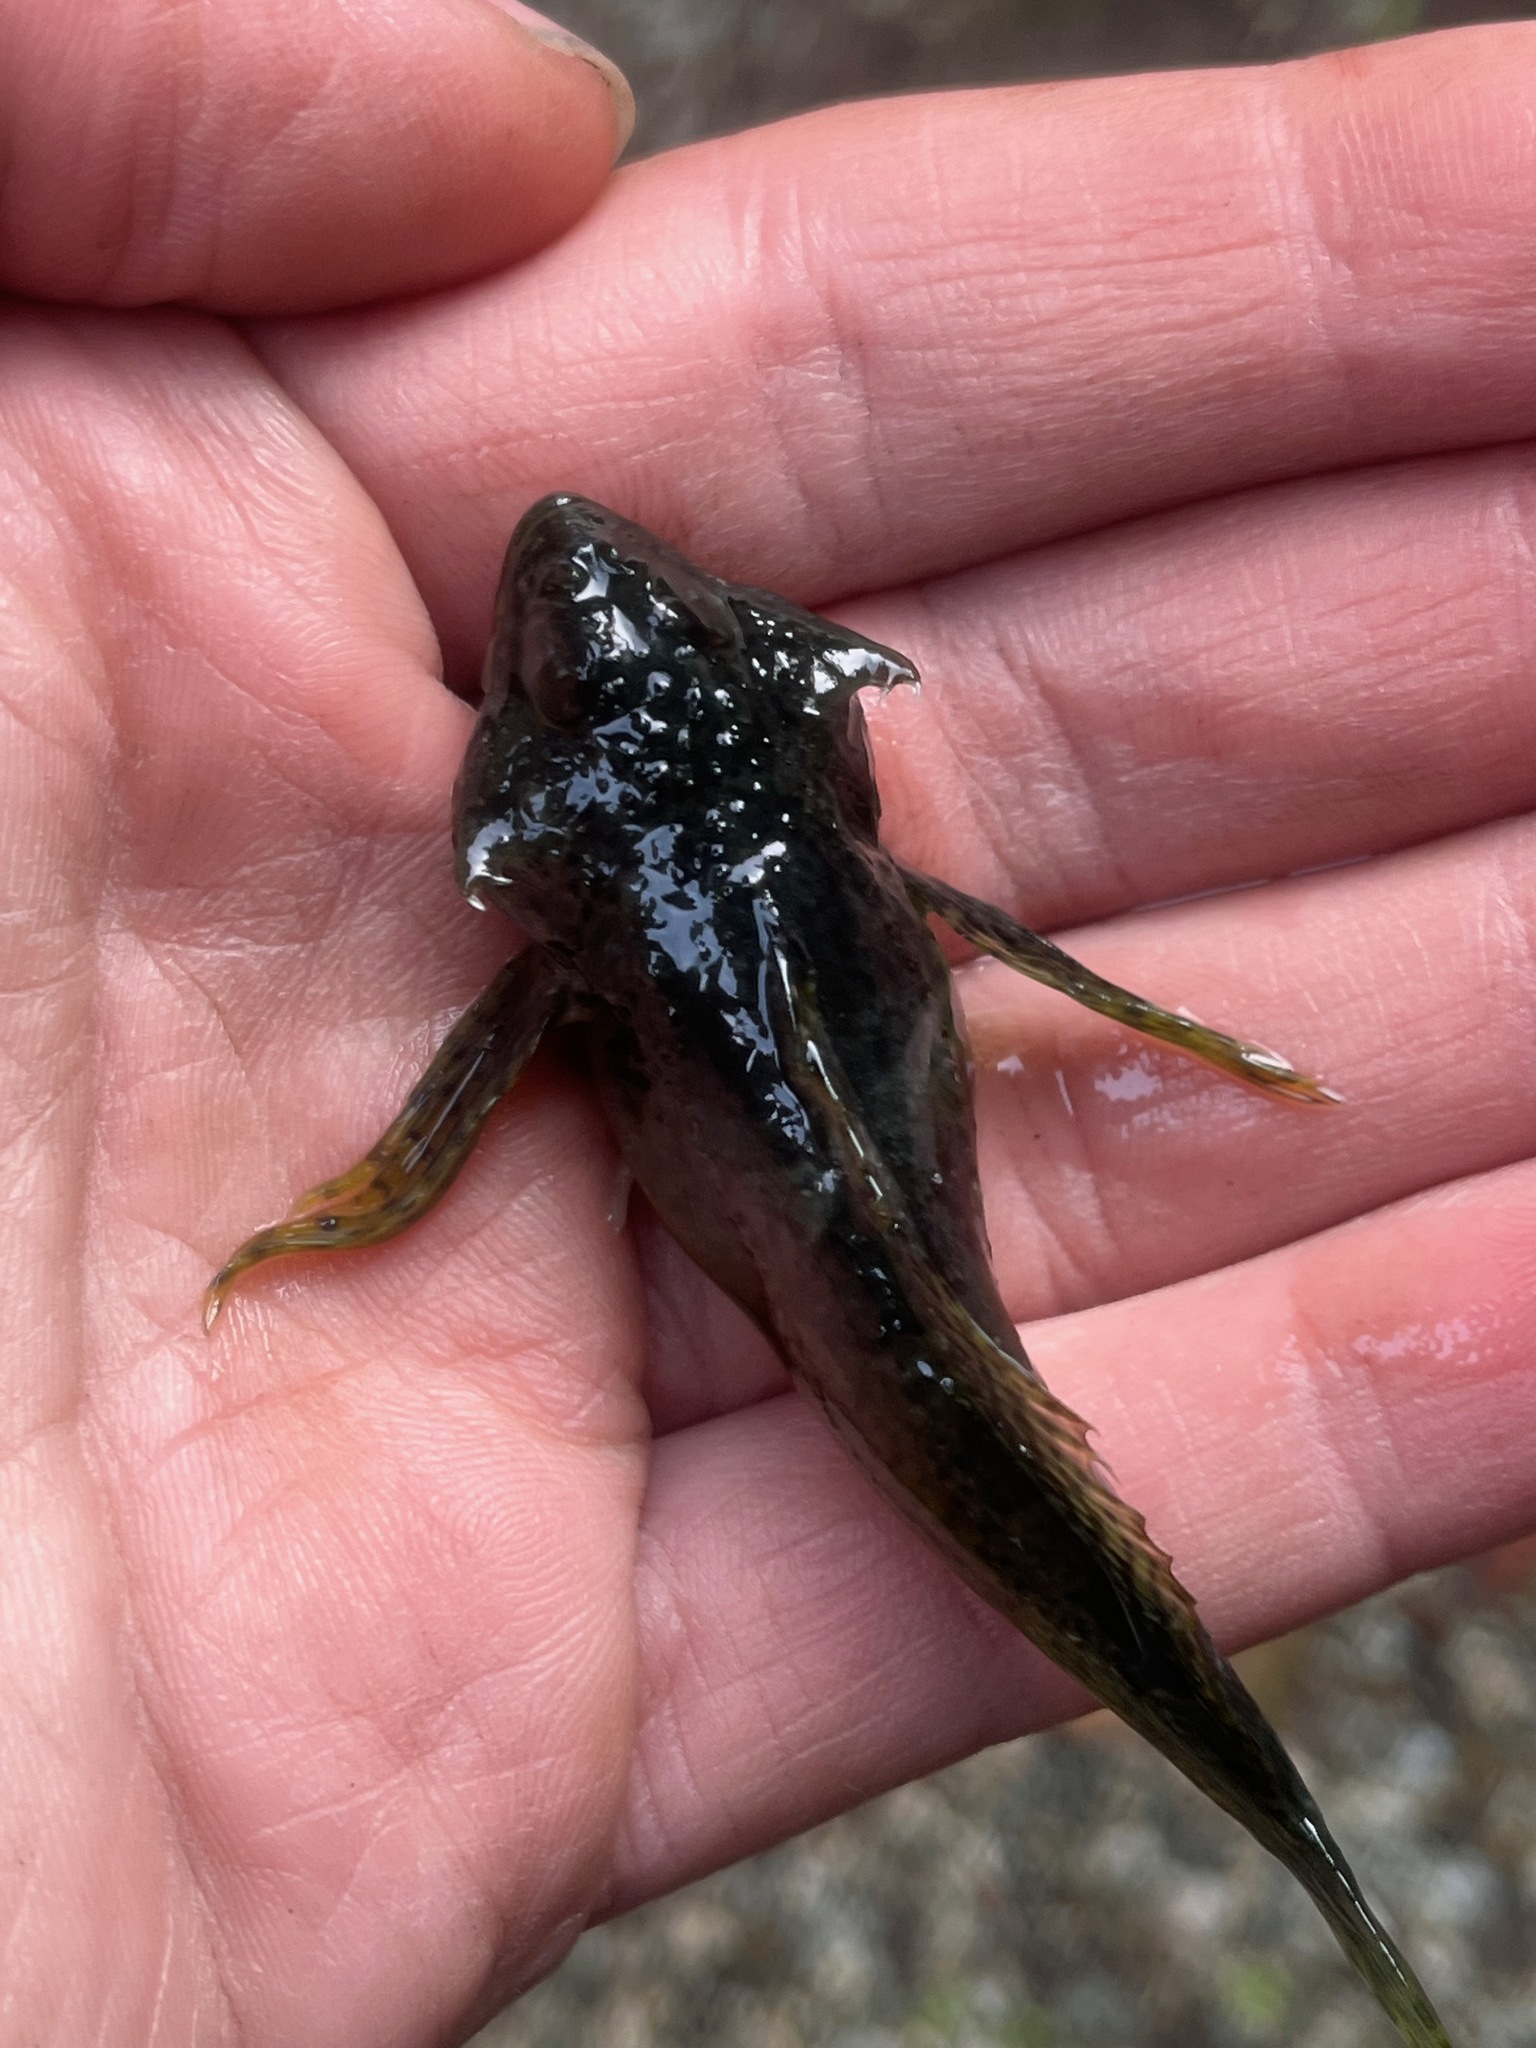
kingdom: Animalia
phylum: Chordata
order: Scorpaeniformes
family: Cottidae
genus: Oligocottus
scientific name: Oligocottus maculosus
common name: Tidepool sculpin
